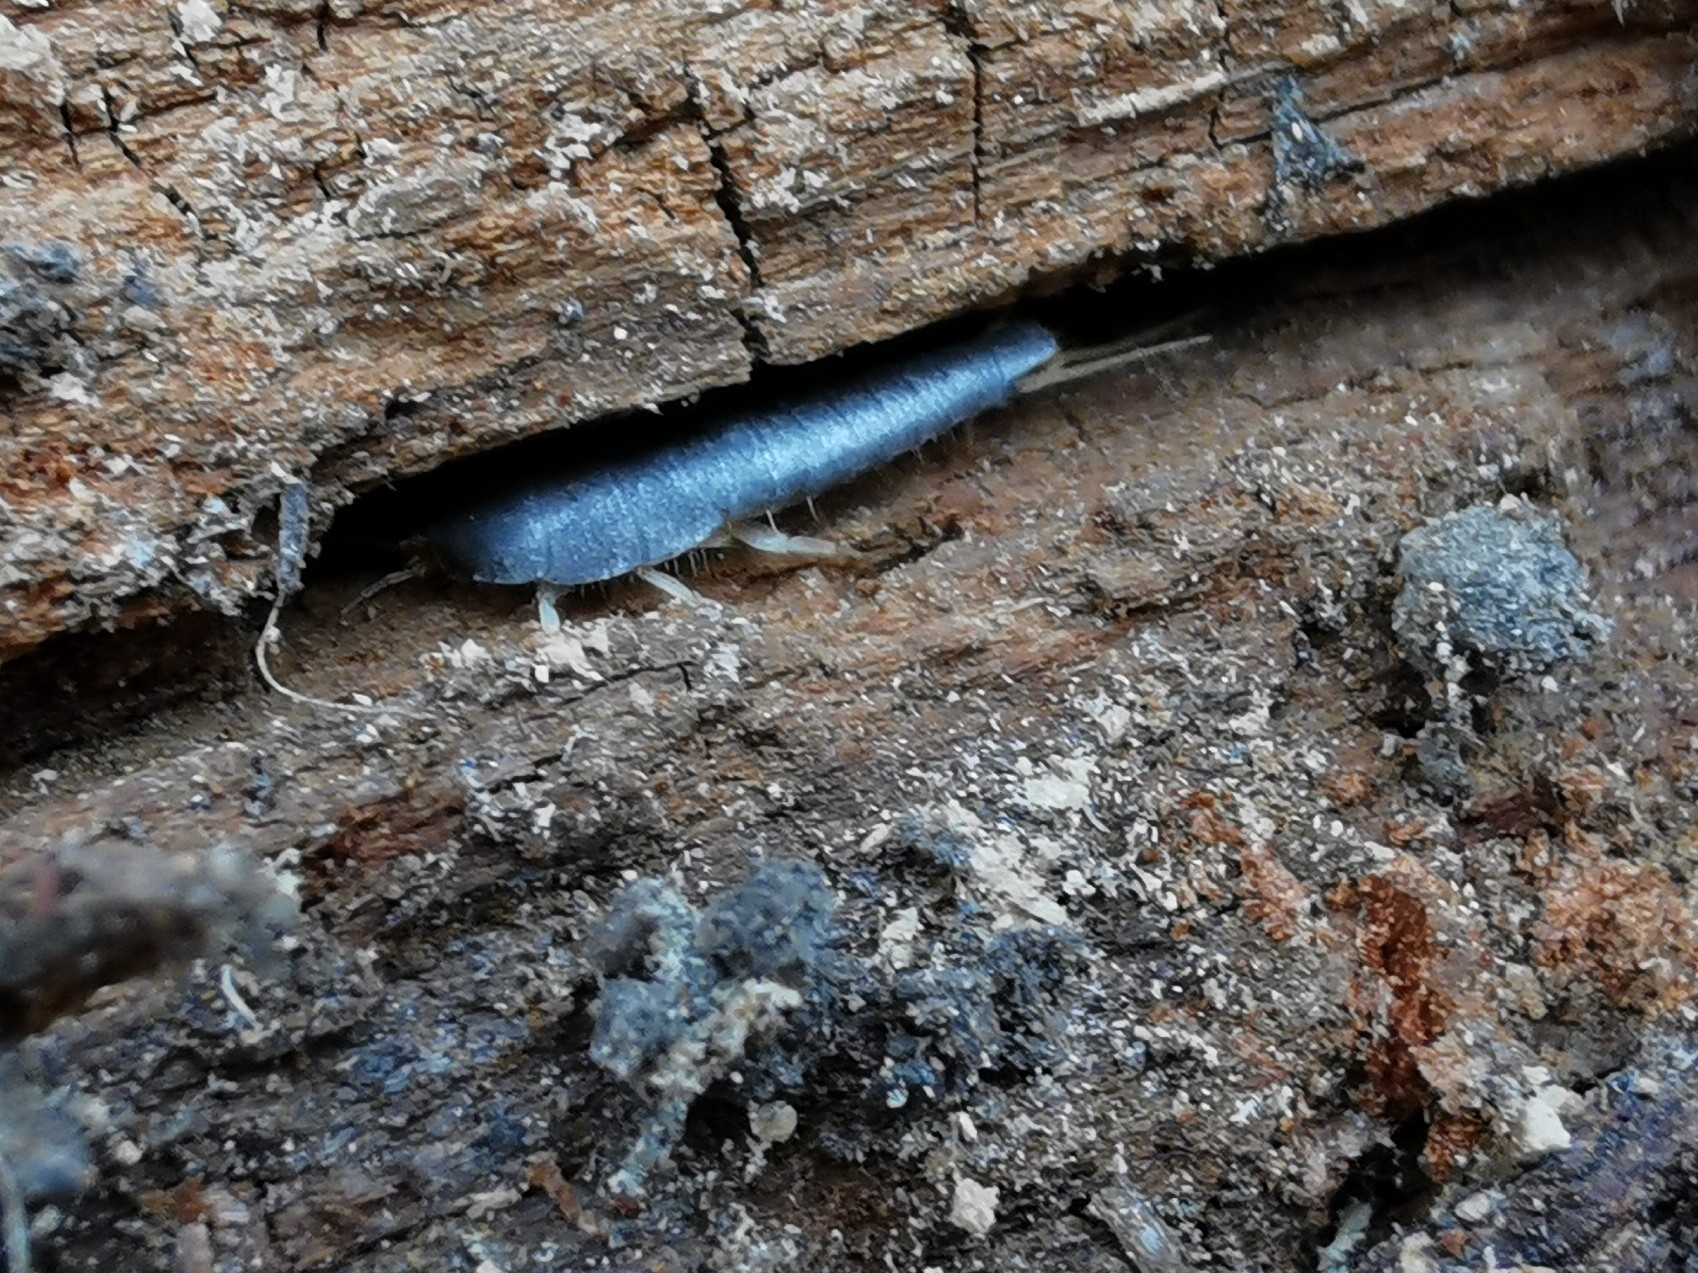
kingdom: Animalia
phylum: Arthropoda
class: Insecta
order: Zygentoma
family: Lepismatidae
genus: Lepisma
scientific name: Lepisma saccharinum
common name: Silverfish
